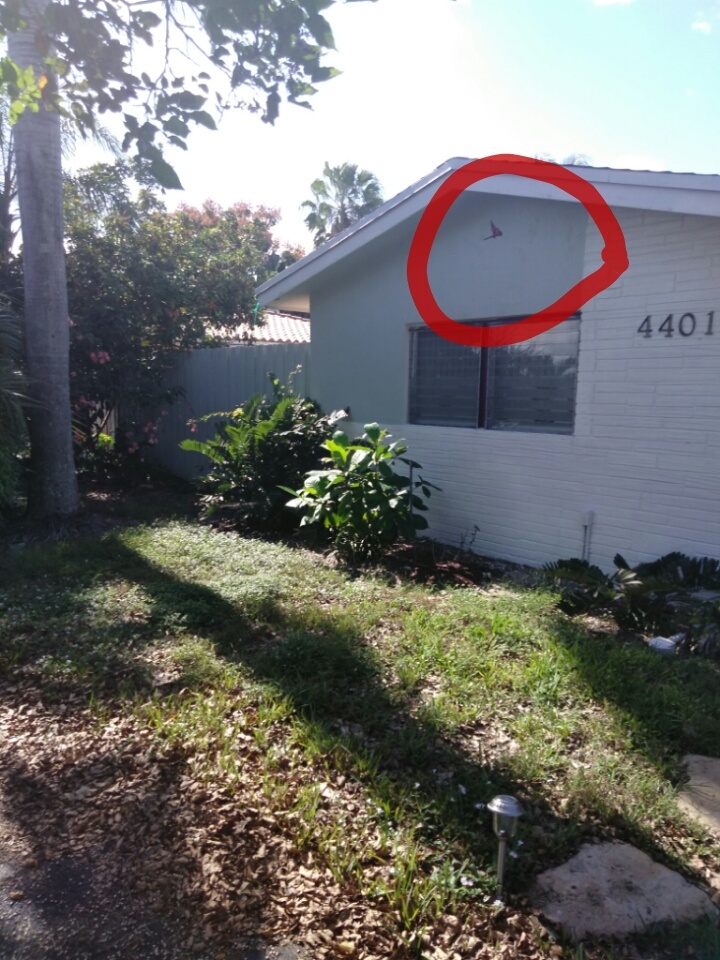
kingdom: Animalia
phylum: Arthropoda
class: Insecta
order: Lepidoptera
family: Nymphalidae
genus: Danaus
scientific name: Danaus plexippus
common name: Monarch
